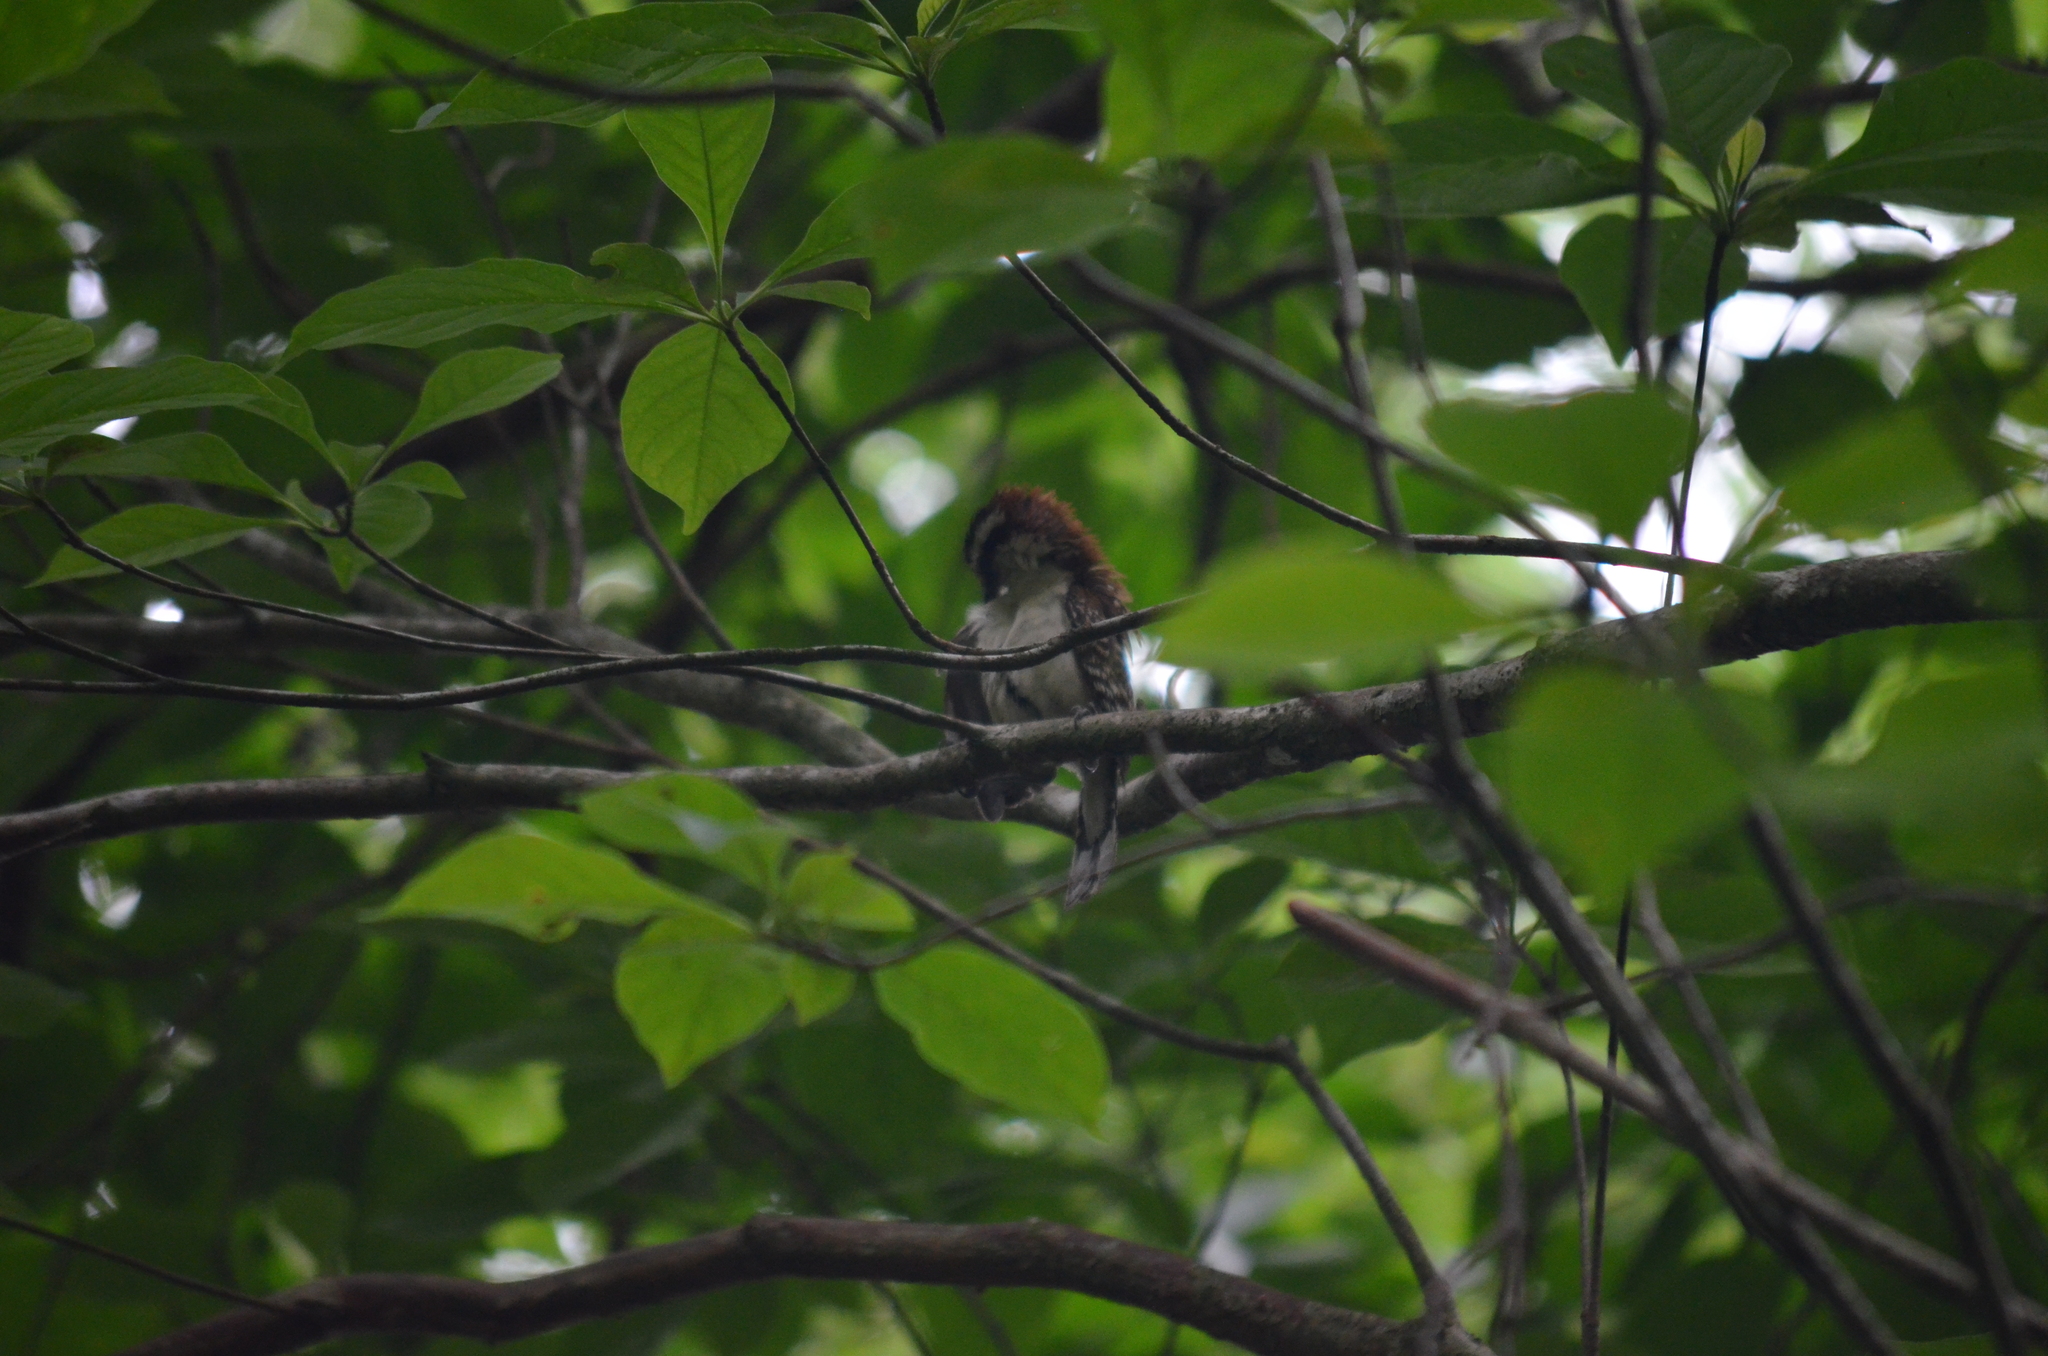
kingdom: Animalia
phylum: Chordata
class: Aves
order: Passeriformes
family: Troglodytidae
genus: Campylorhynchus
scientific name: Campylorhynchus rufinucha
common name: Rufous-naped wren
